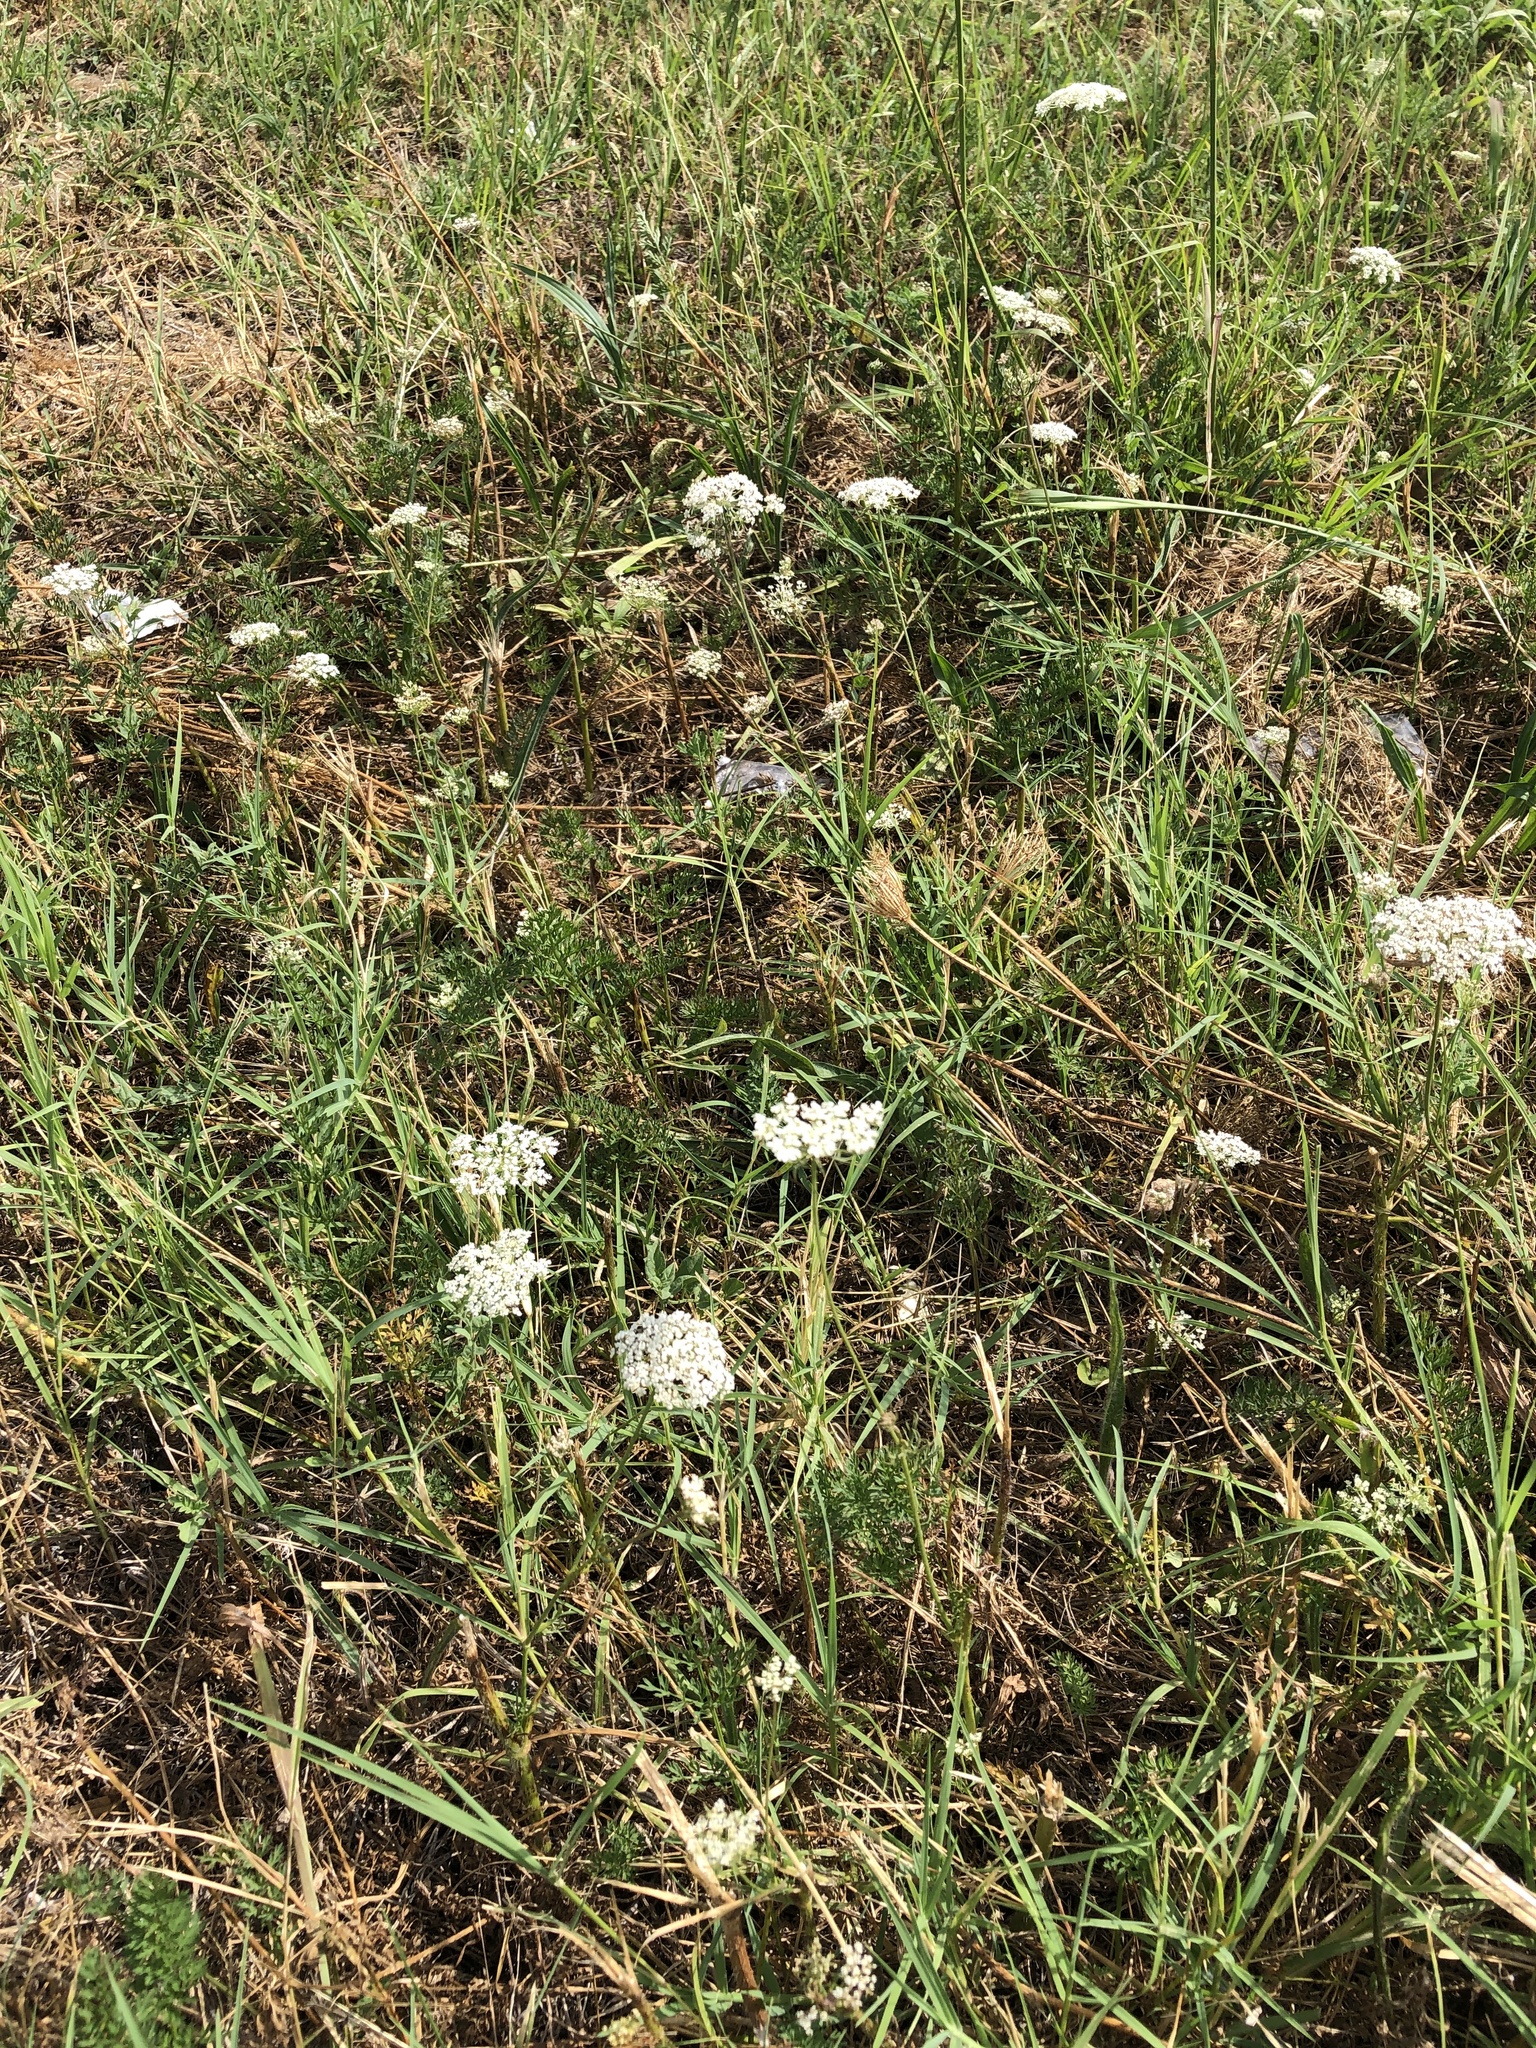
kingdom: Plantae
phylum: Tracheophyta
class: Magnoliopsida
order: Apiales
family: Apiaceae
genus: Daucus
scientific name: Daucus carota
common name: Wild carrot
